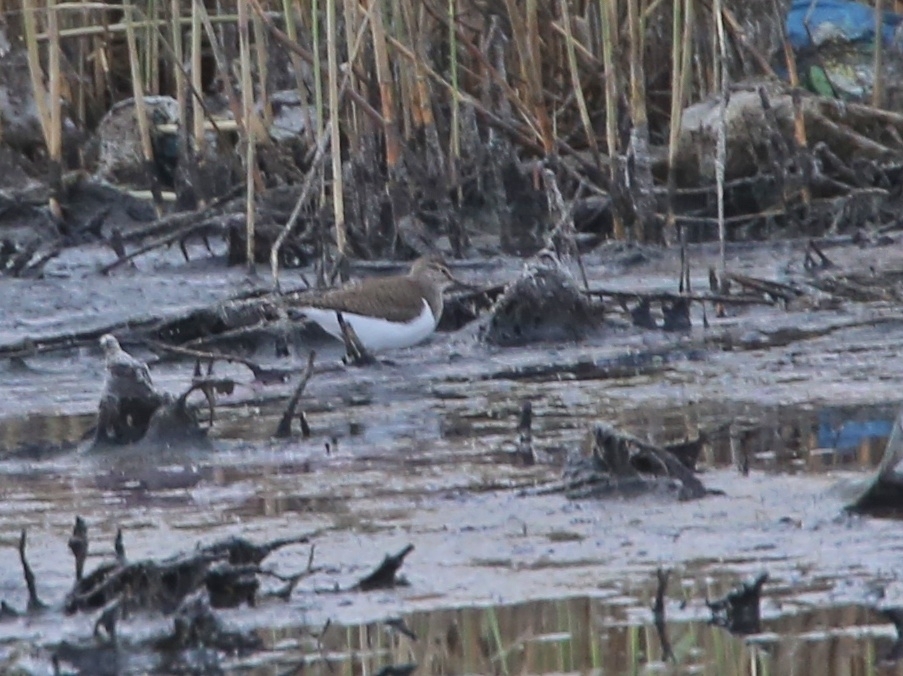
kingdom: Animalia
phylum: Chordata
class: Aves
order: Charadriiformes
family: Scolopacidae
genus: Actitis
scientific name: Actitis hypoleucos
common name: Common sandpiper
